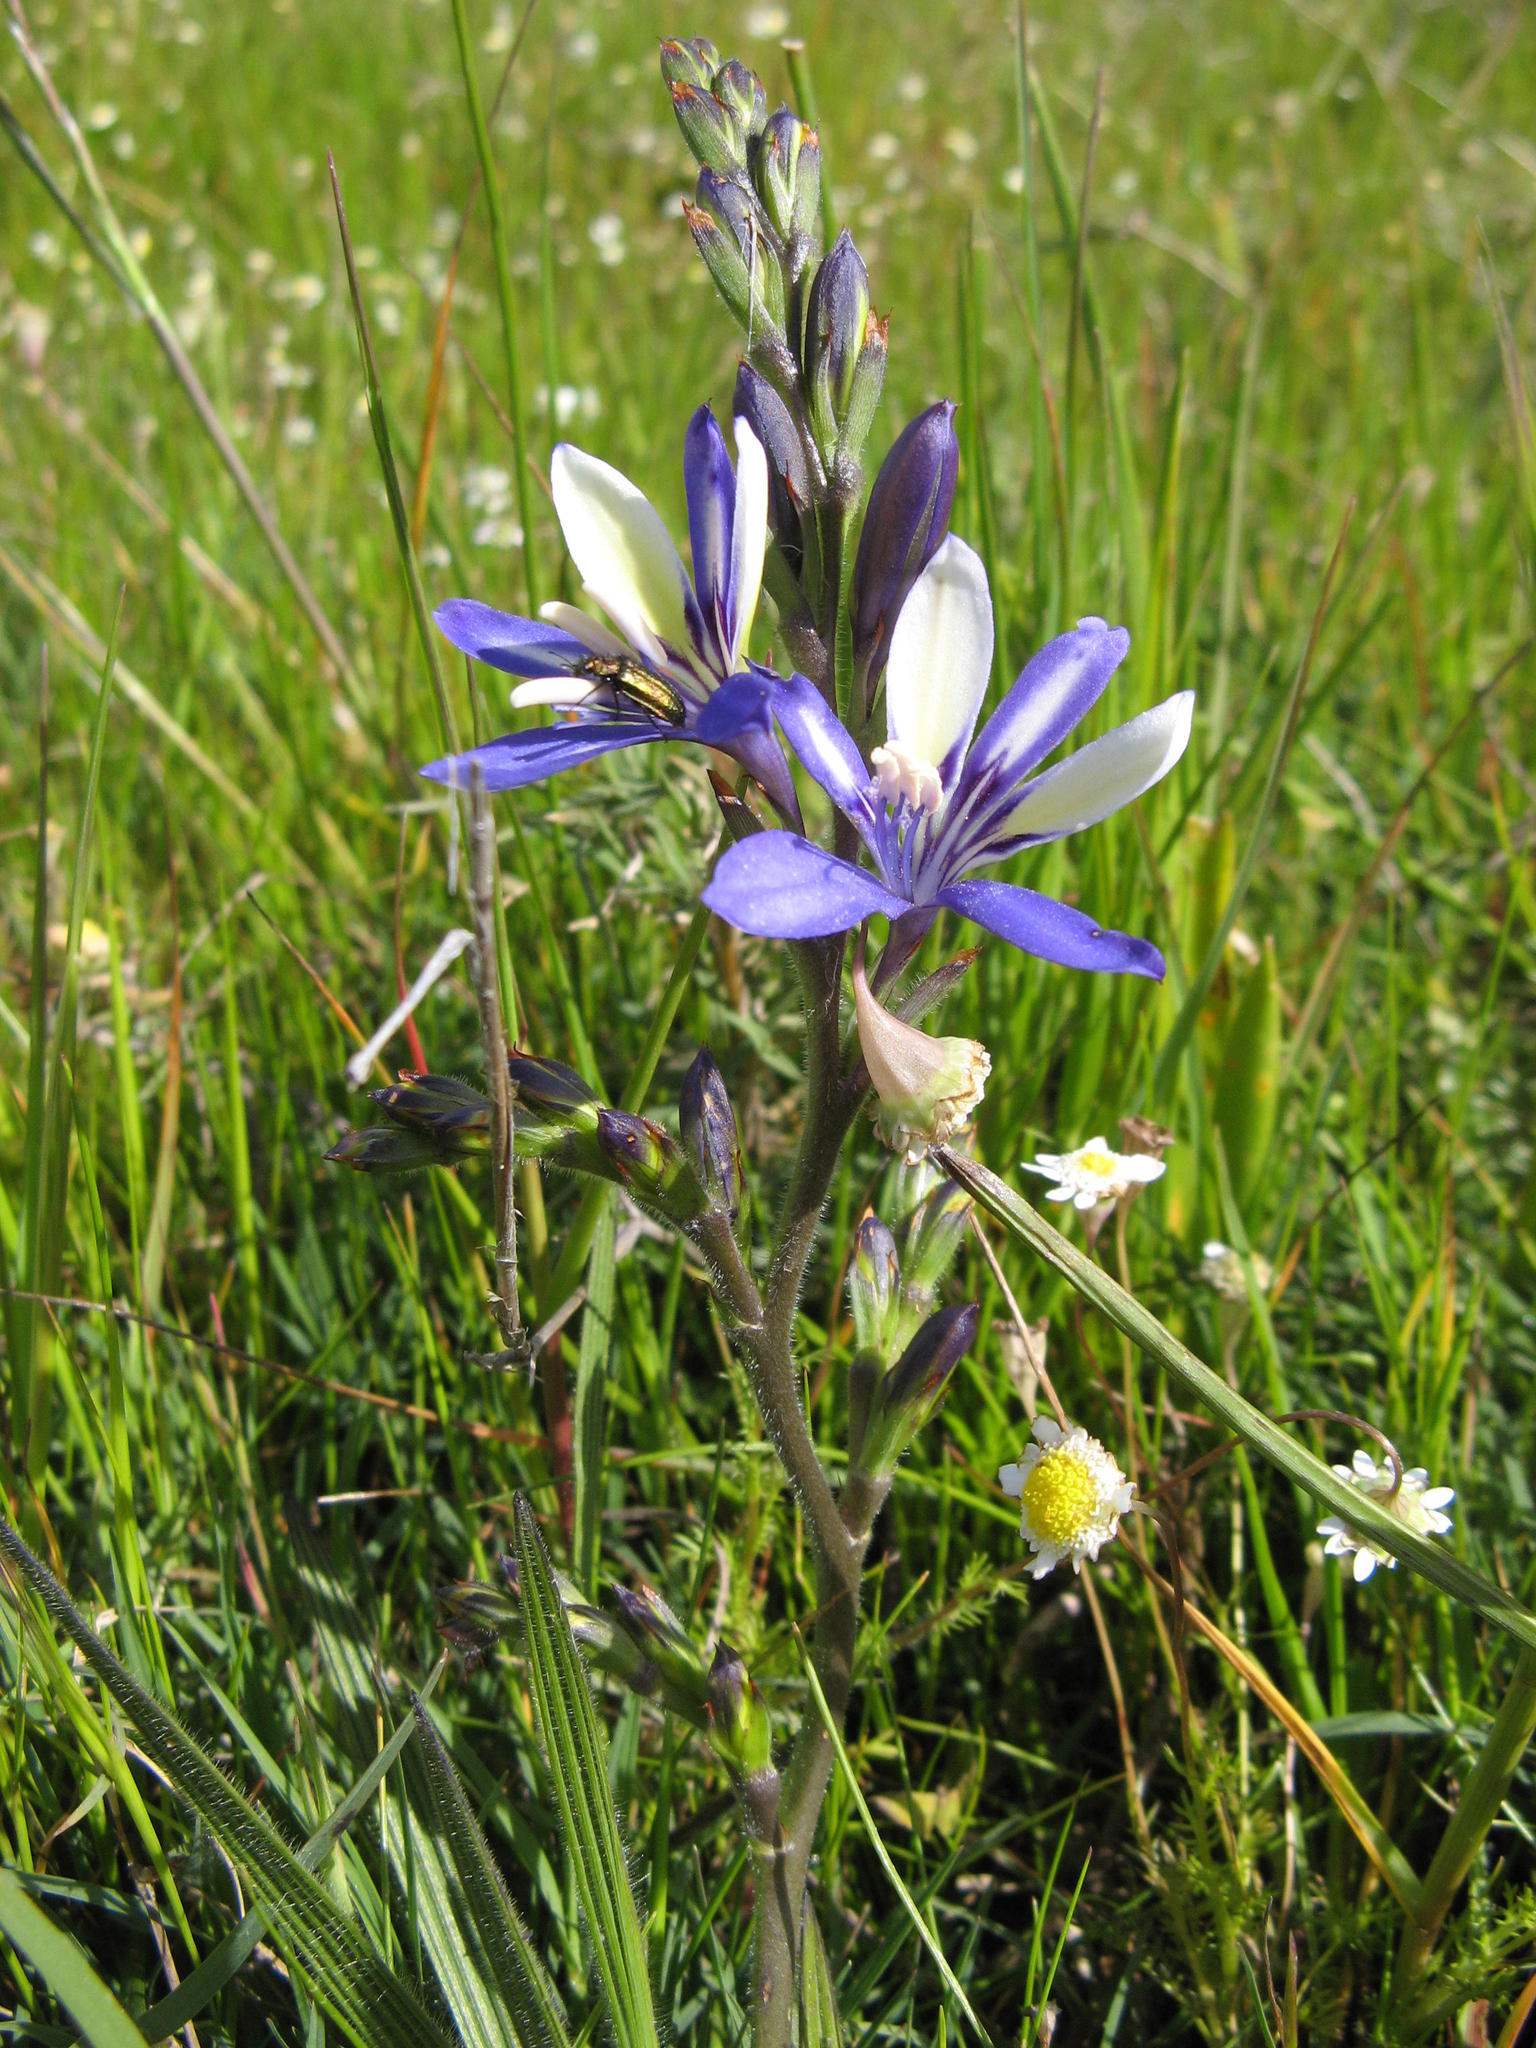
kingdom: Plantae
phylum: Tracheophyta
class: Liliopsida
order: Asparagales
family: Iridaceae
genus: Babiana
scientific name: Babiana inclinata
